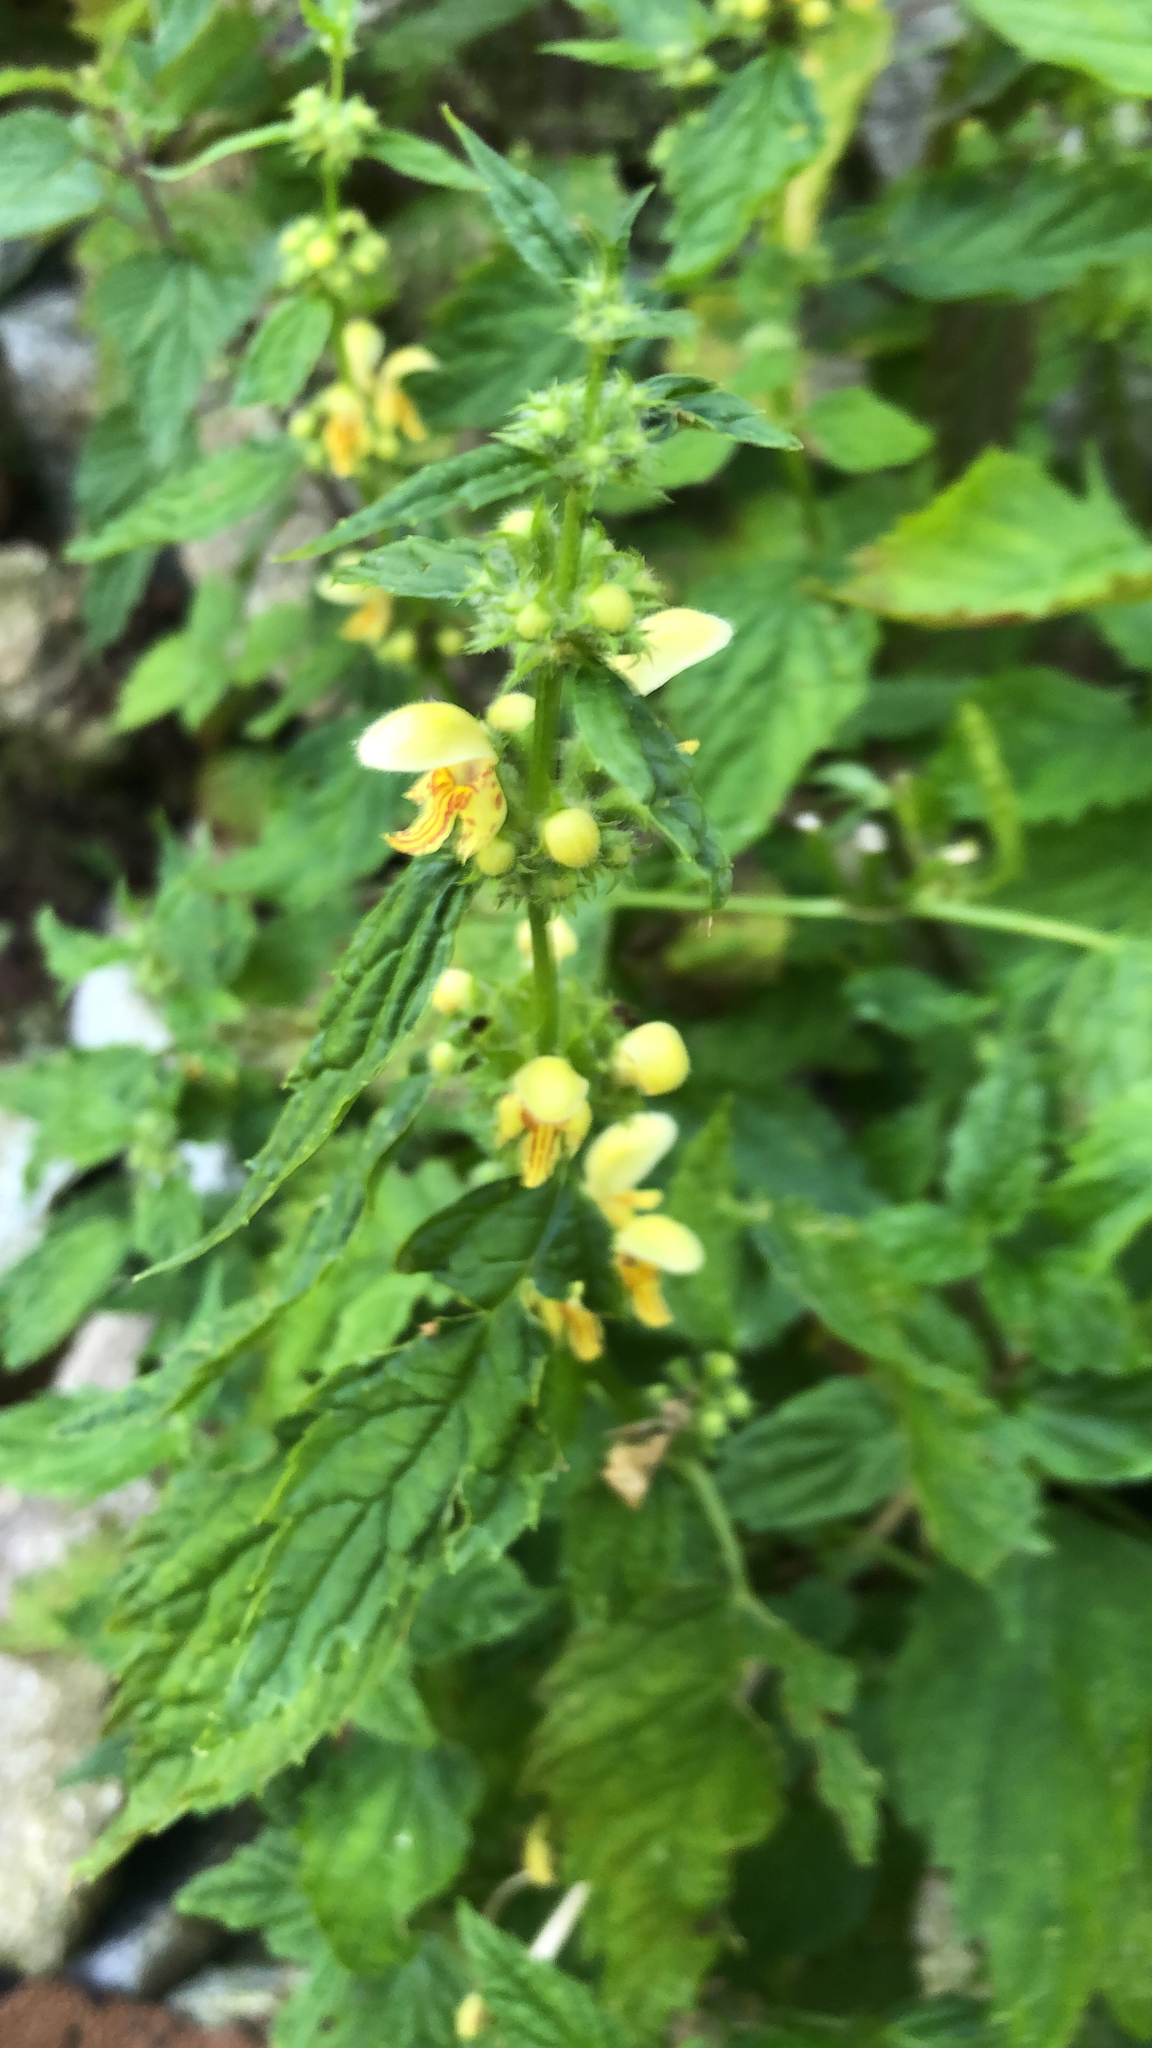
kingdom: Plantae
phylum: Tracheophyta
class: Magnoliopsida
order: Lamiales
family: Lamiaceae
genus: Lamium
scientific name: Lamium galeobdolon
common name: Yellow archangel
